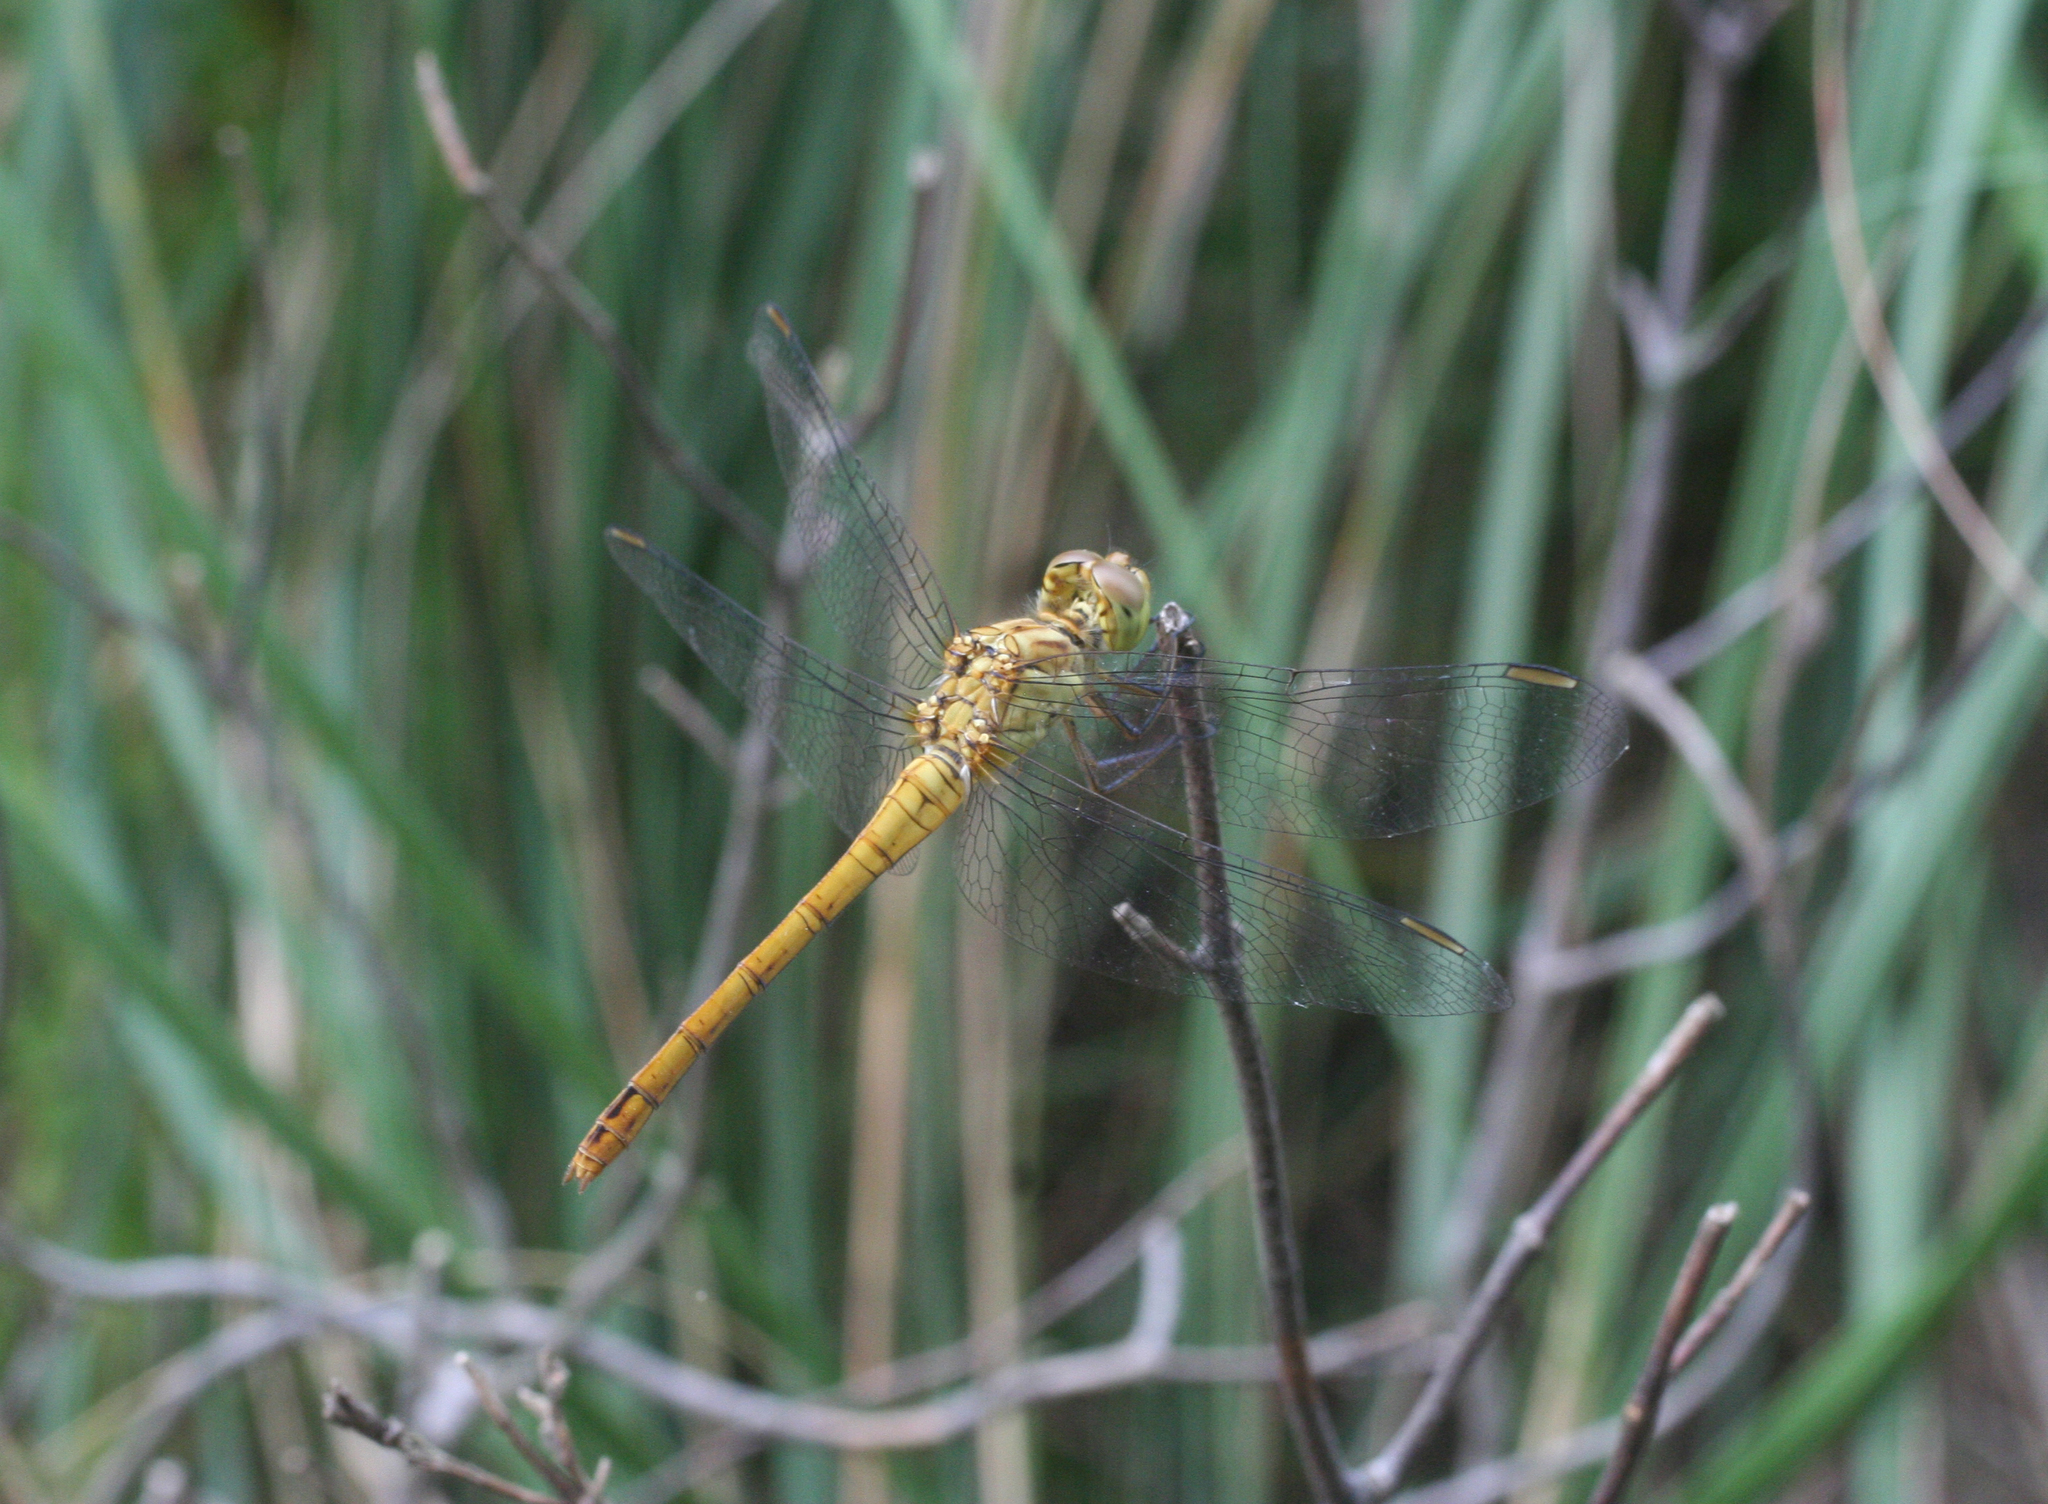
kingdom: Animalia
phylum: Arthropoda
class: Insecta
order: Odonata
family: Libellulidae
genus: Sympetrum
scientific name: Sympetrum meridionale
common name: Southern darter
